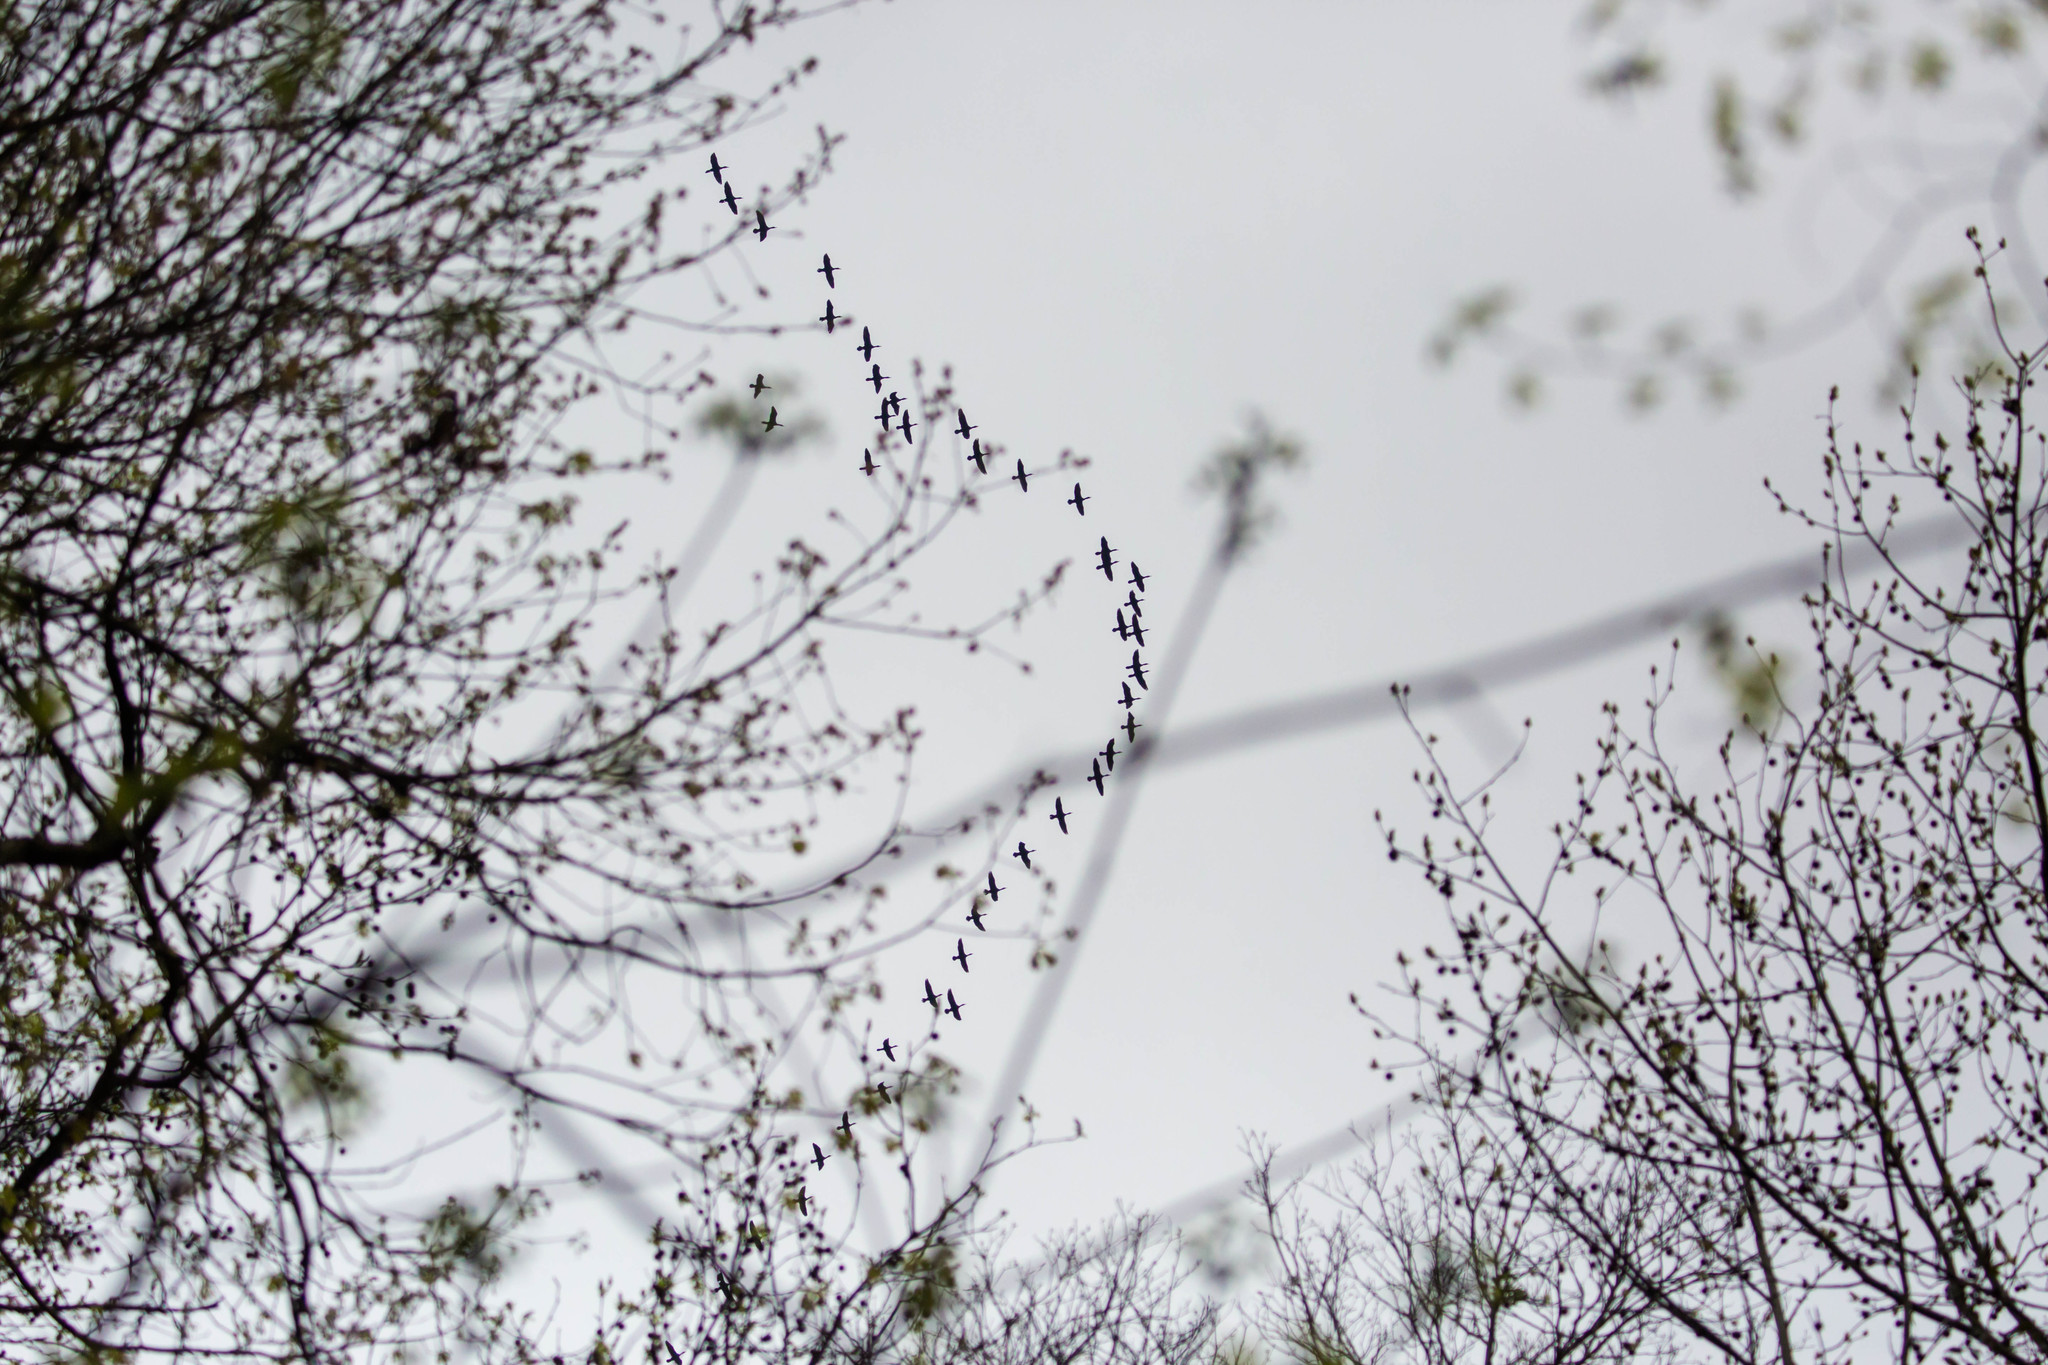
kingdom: Animalia
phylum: Chordata
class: Aves
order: Suliformes
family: Phalacrocoracidae
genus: Phalacrocorax
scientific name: Phalacrocorax auritus
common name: Double-crested cormorant
